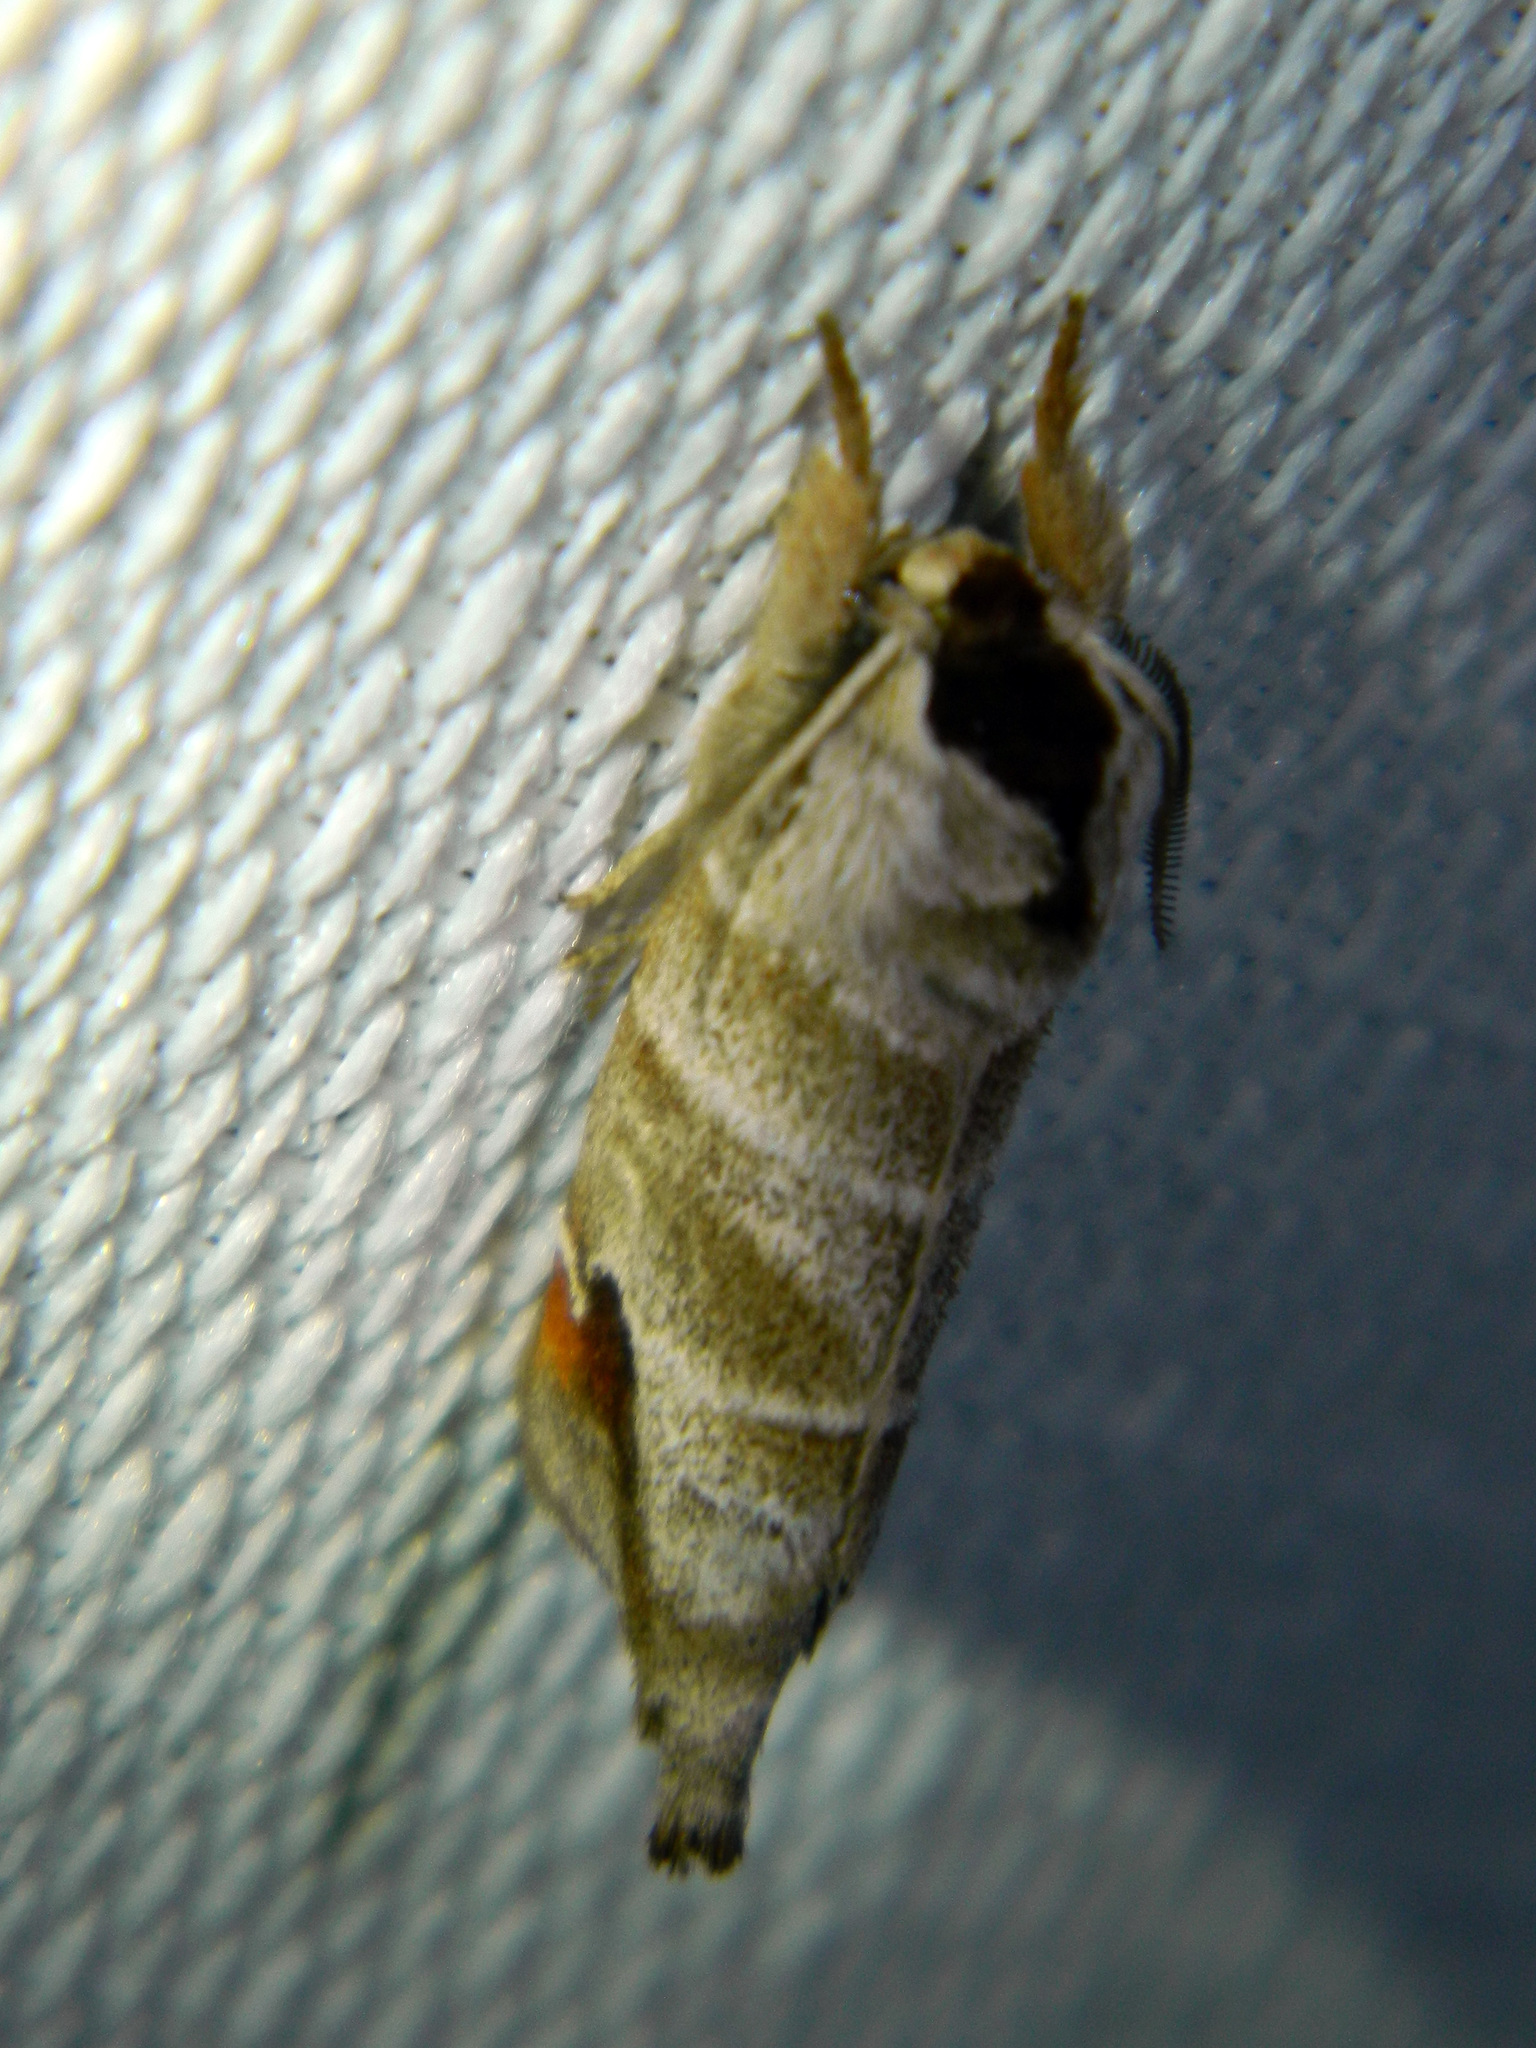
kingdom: Animalia
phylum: Arthropoda
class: Insecta
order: Lepidoptera
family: Notodontidae
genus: Clostera
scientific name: Clostera albosigma
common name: Sigmoid prominent
